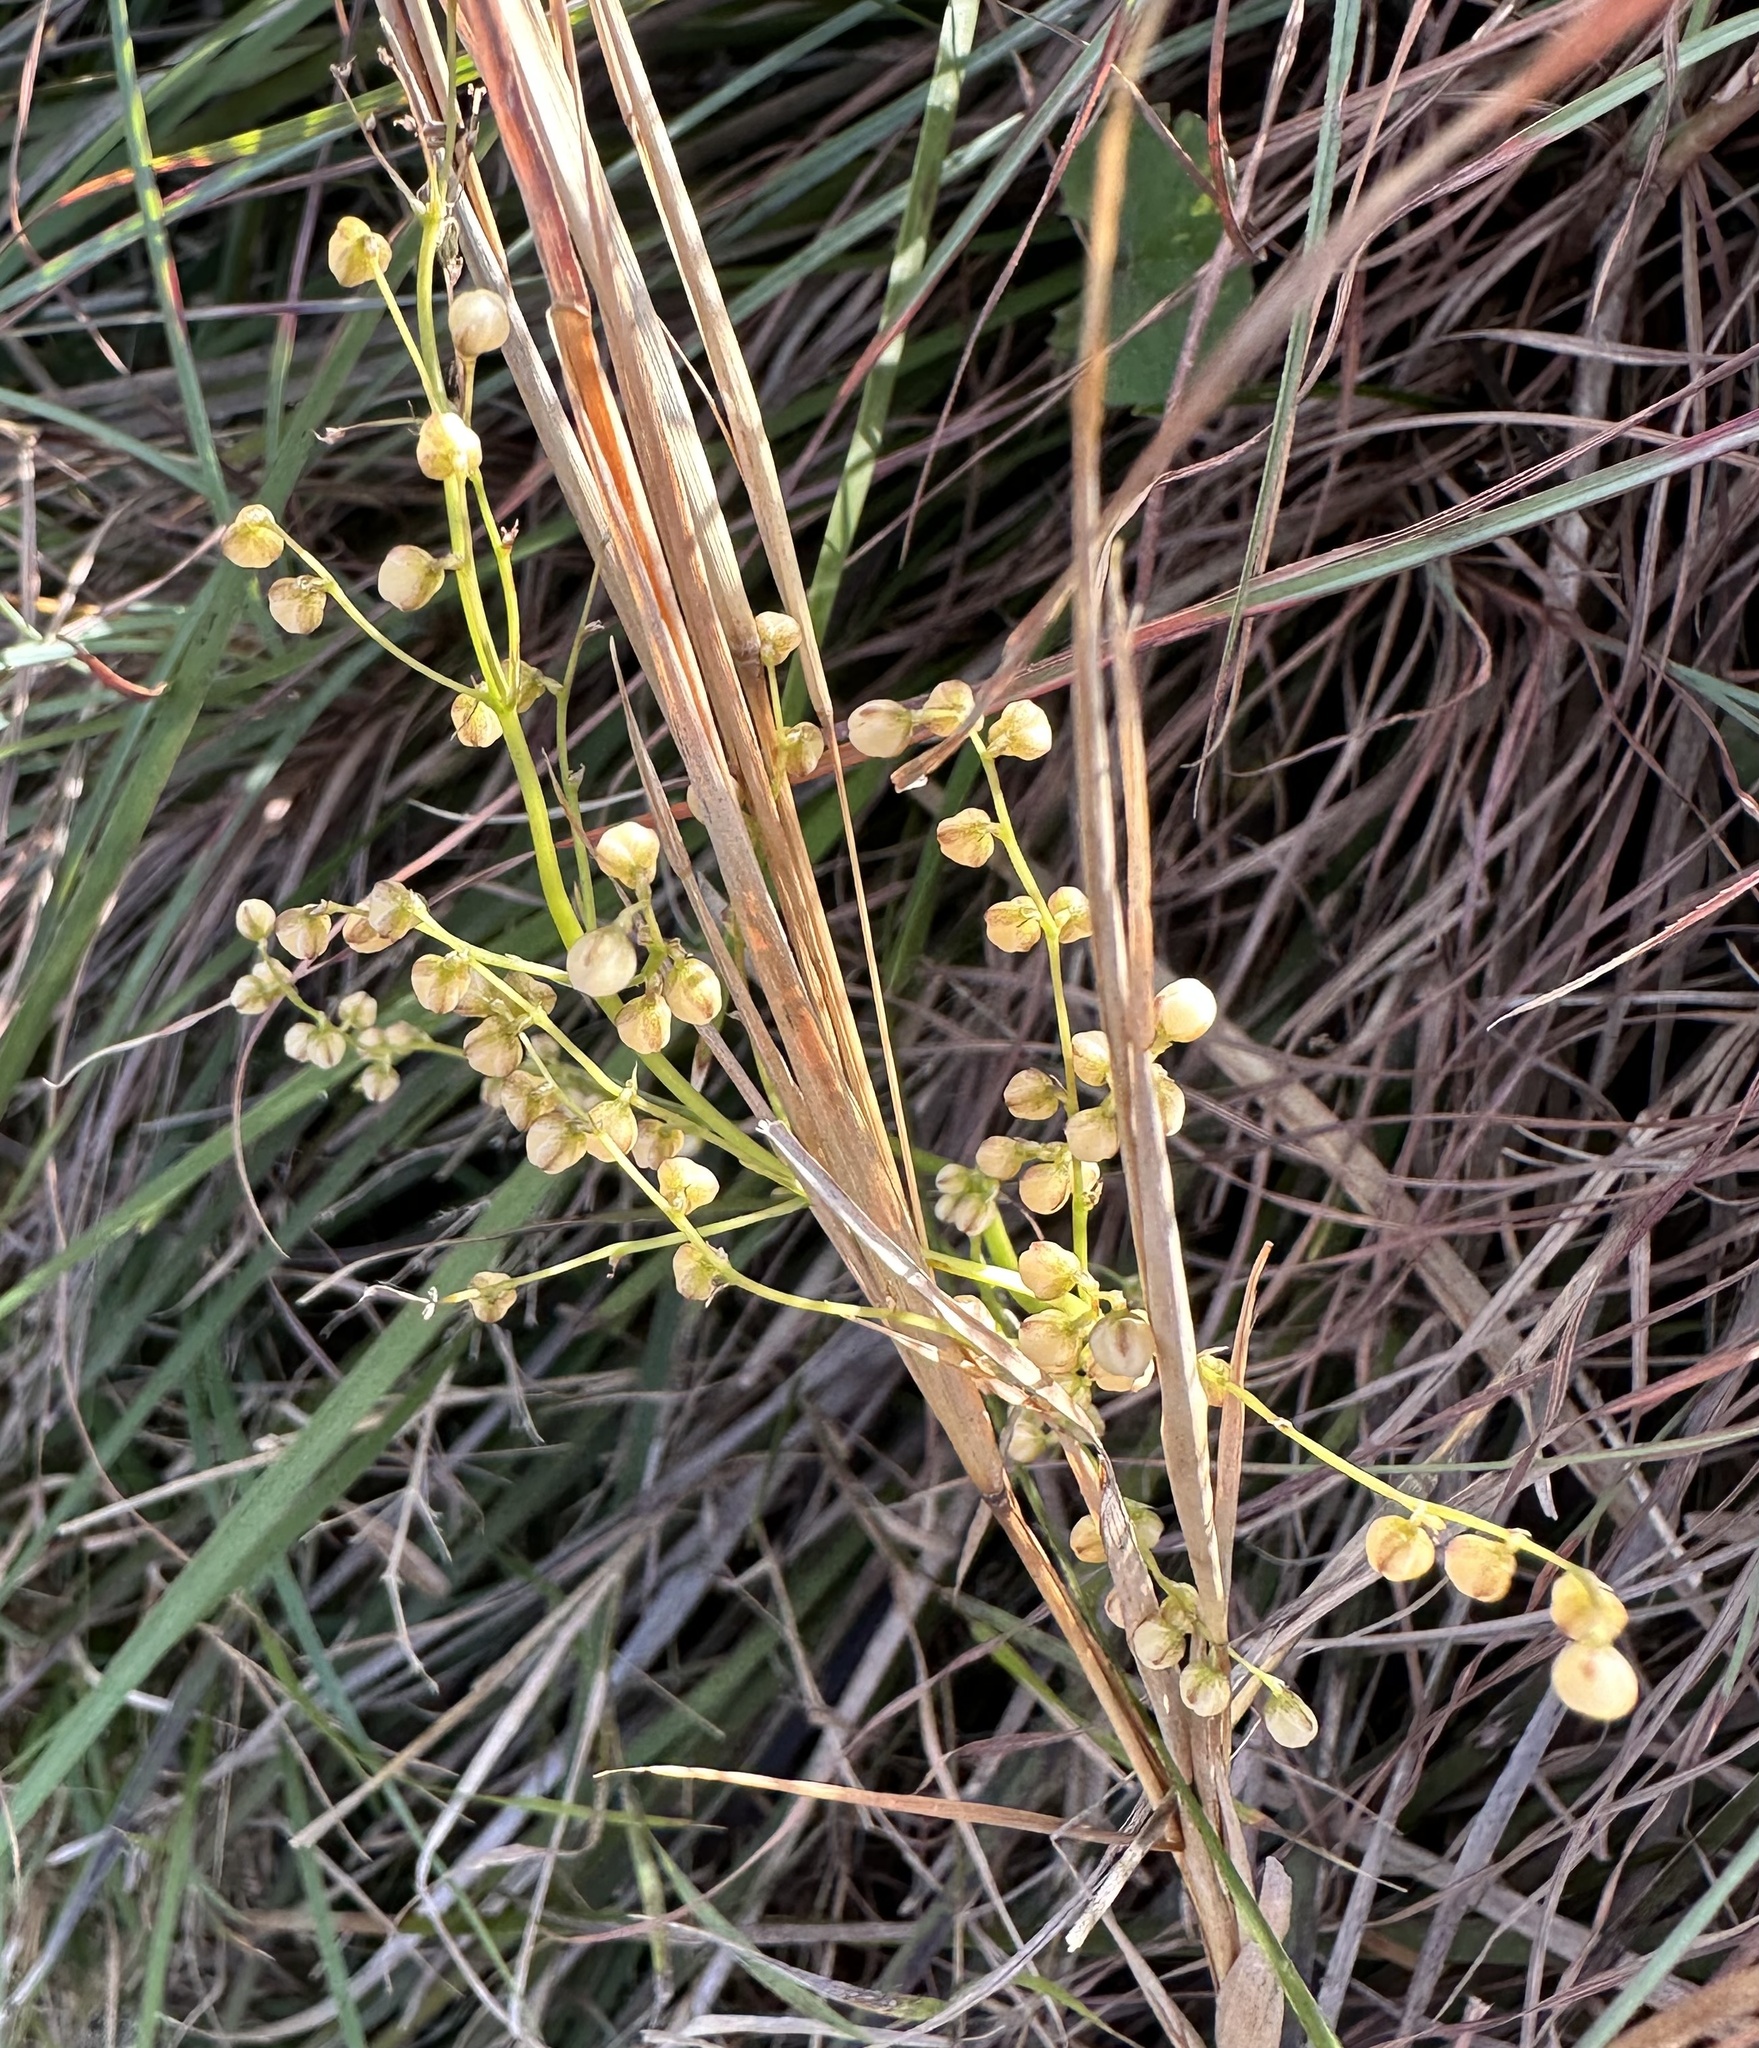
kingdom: Plantae
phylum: Tracheophyta
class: Liliopsida
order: Asparagales
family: Asparagaceae
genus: Lomandra
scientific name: Lomandra laxa
